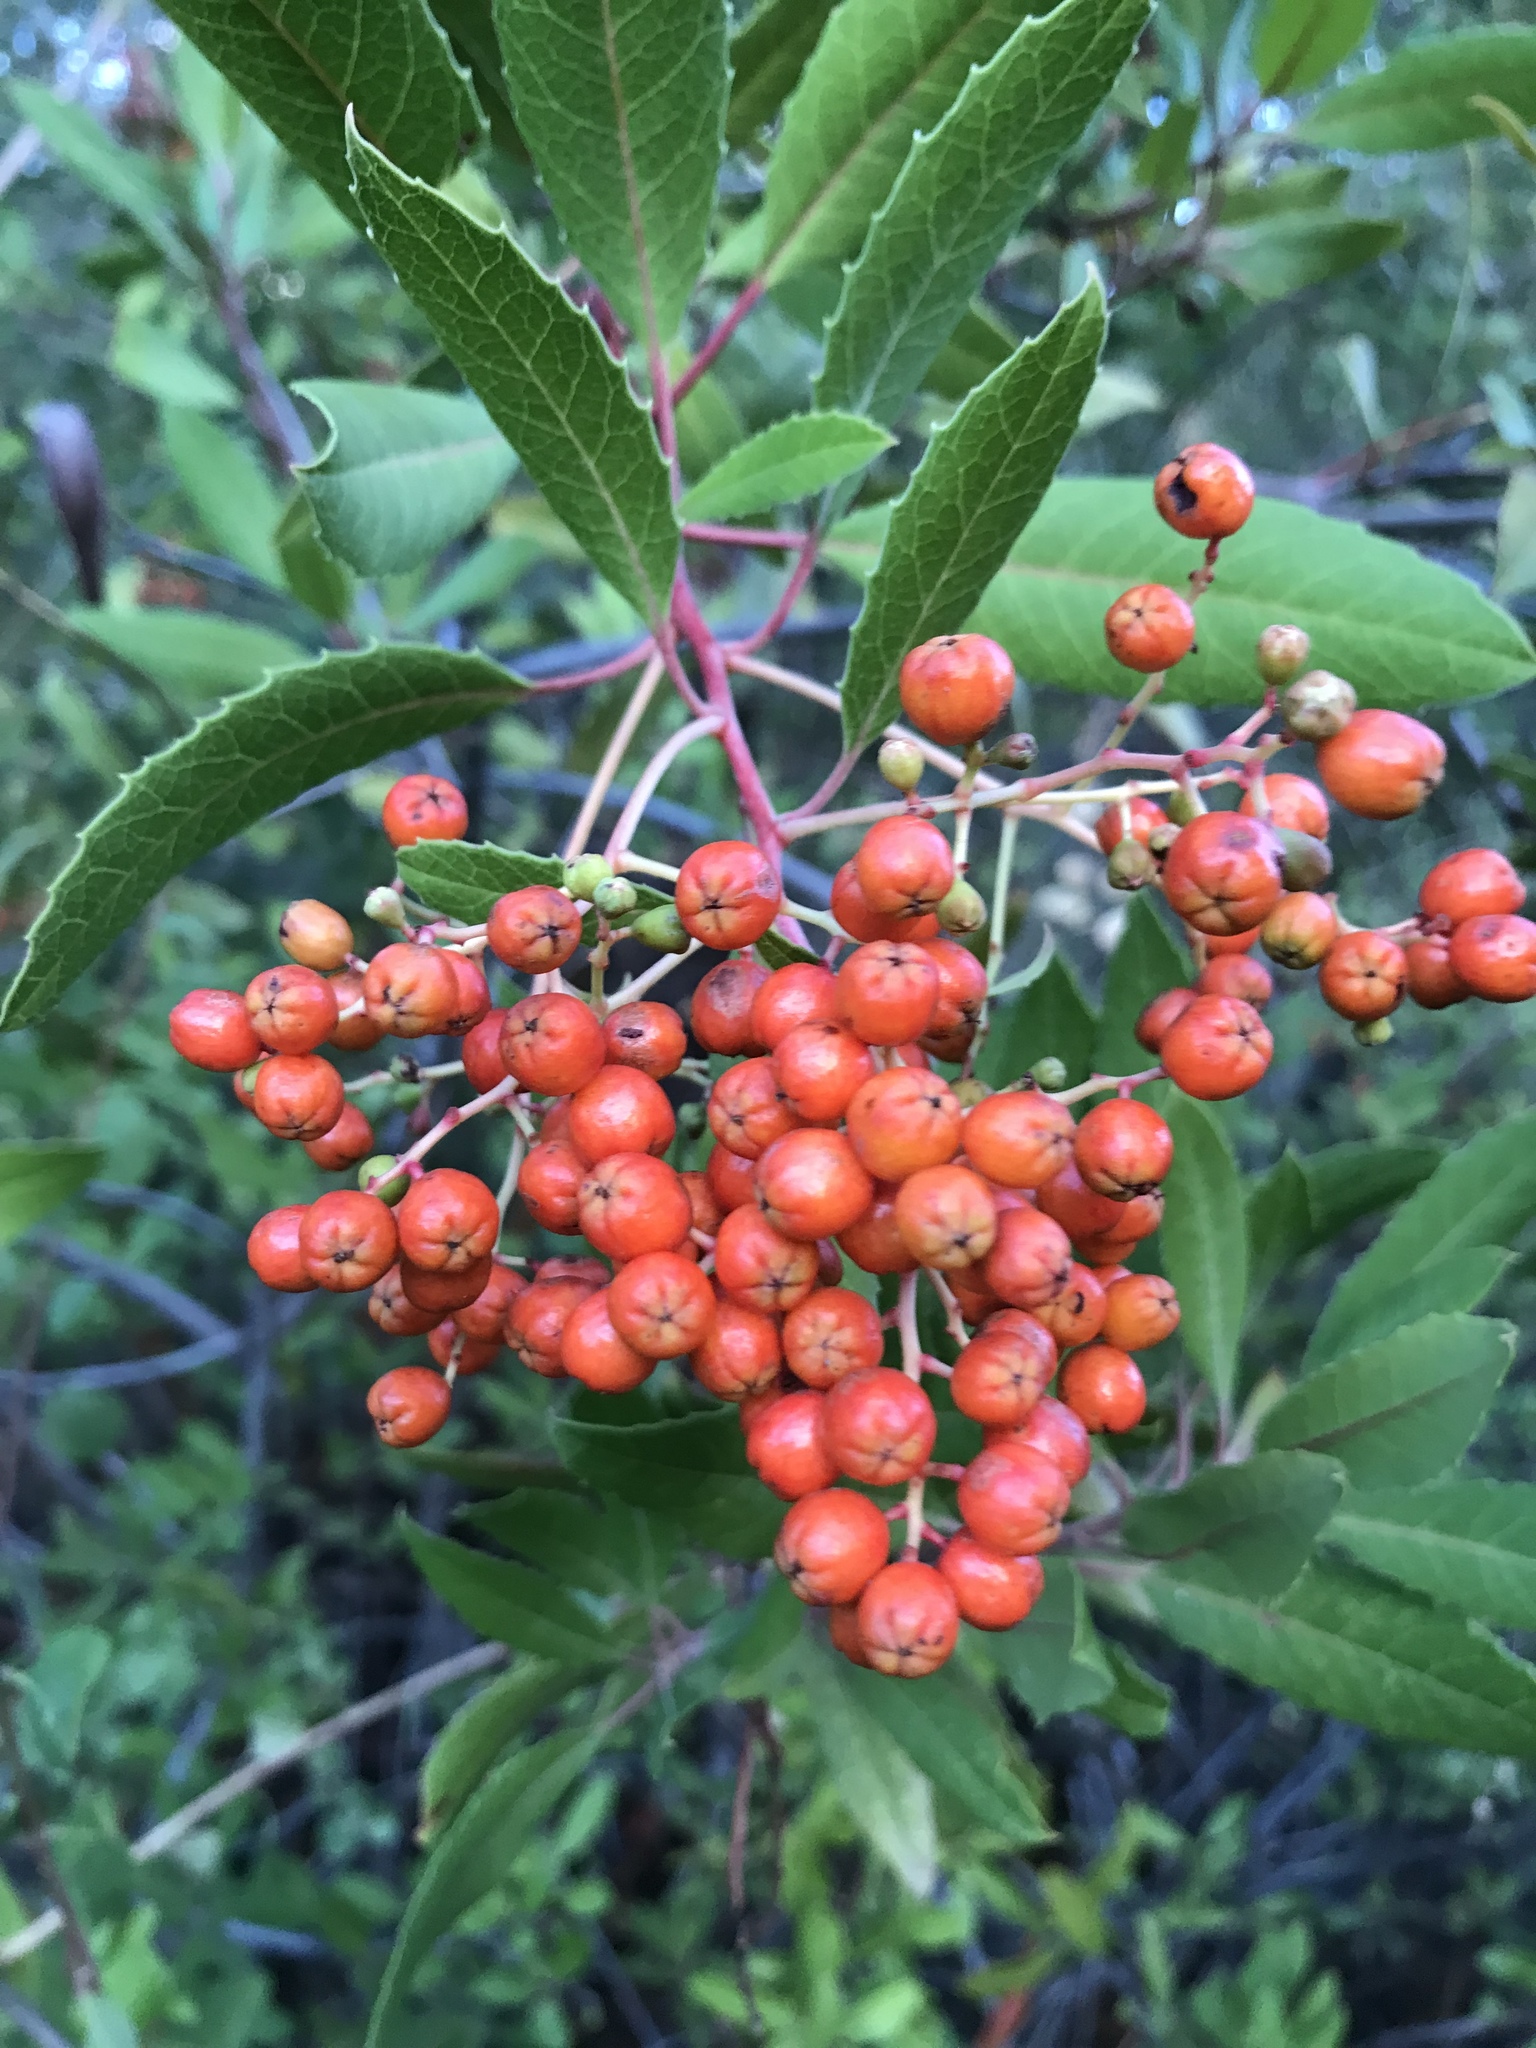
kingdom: Plantae
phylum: Tracheophyta
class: Magnoliopsida
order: Rosales
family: Rosaceae
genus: Heteromeles
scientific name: Heteromeles arbutifolia
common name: California-holly
